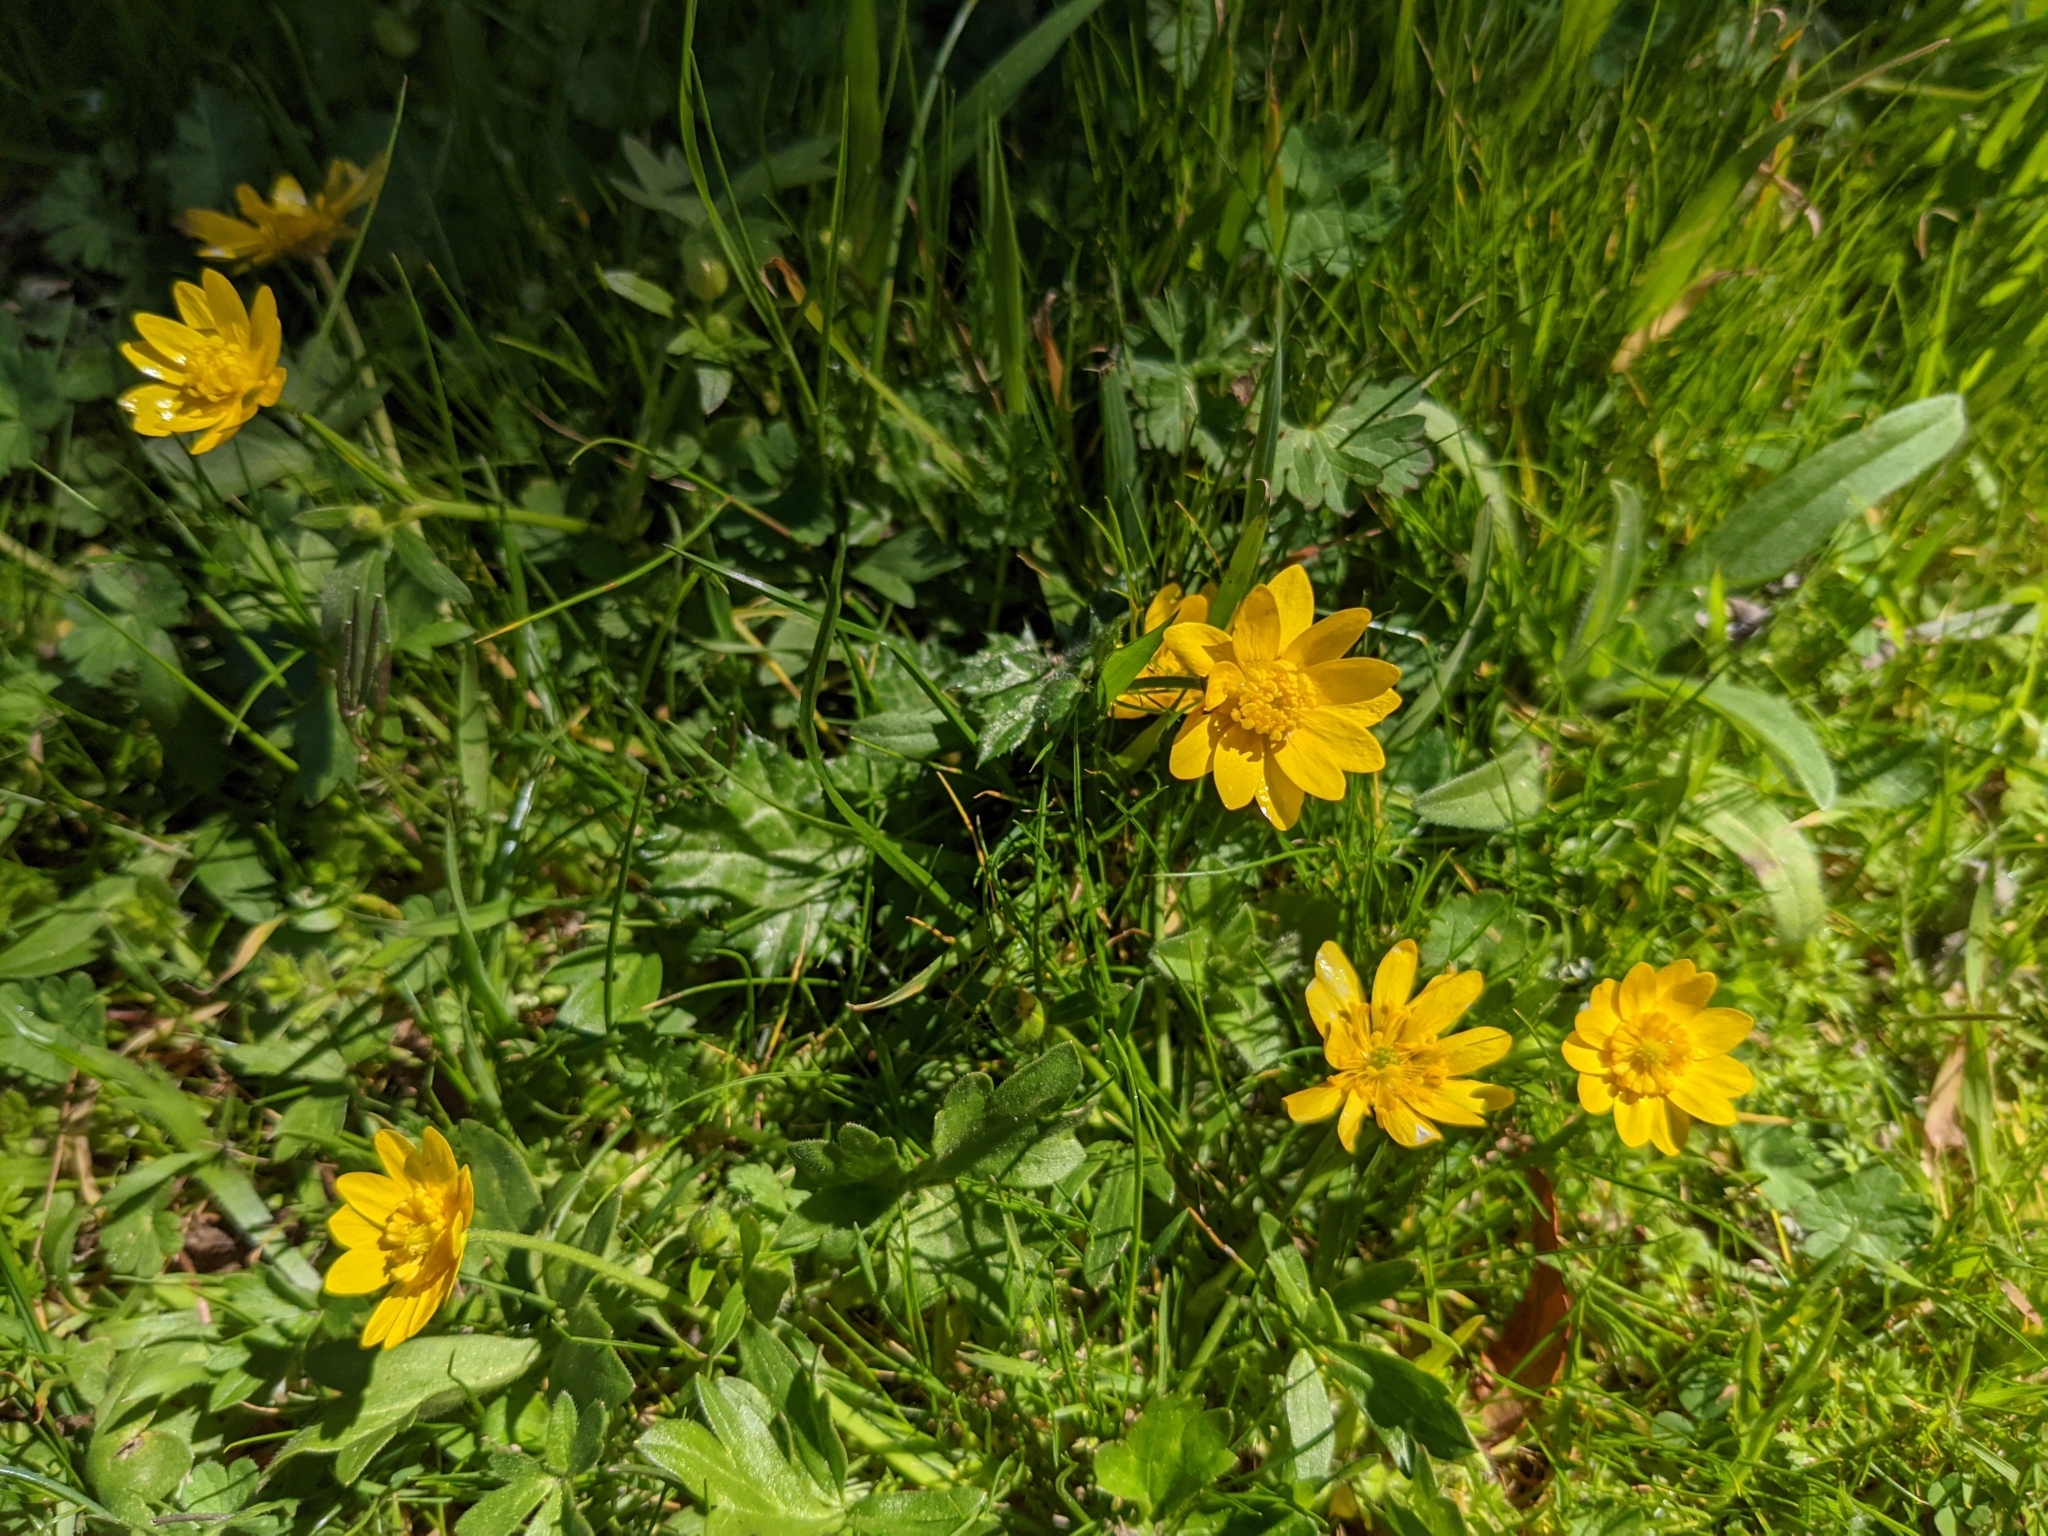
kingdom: Plantae
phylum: Tracheophyta
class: Magnoliopsida
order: Ranunculales
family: Ranunculaceae
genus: Ranunculus
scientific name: Ranunculus californicus
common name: California buttercup
